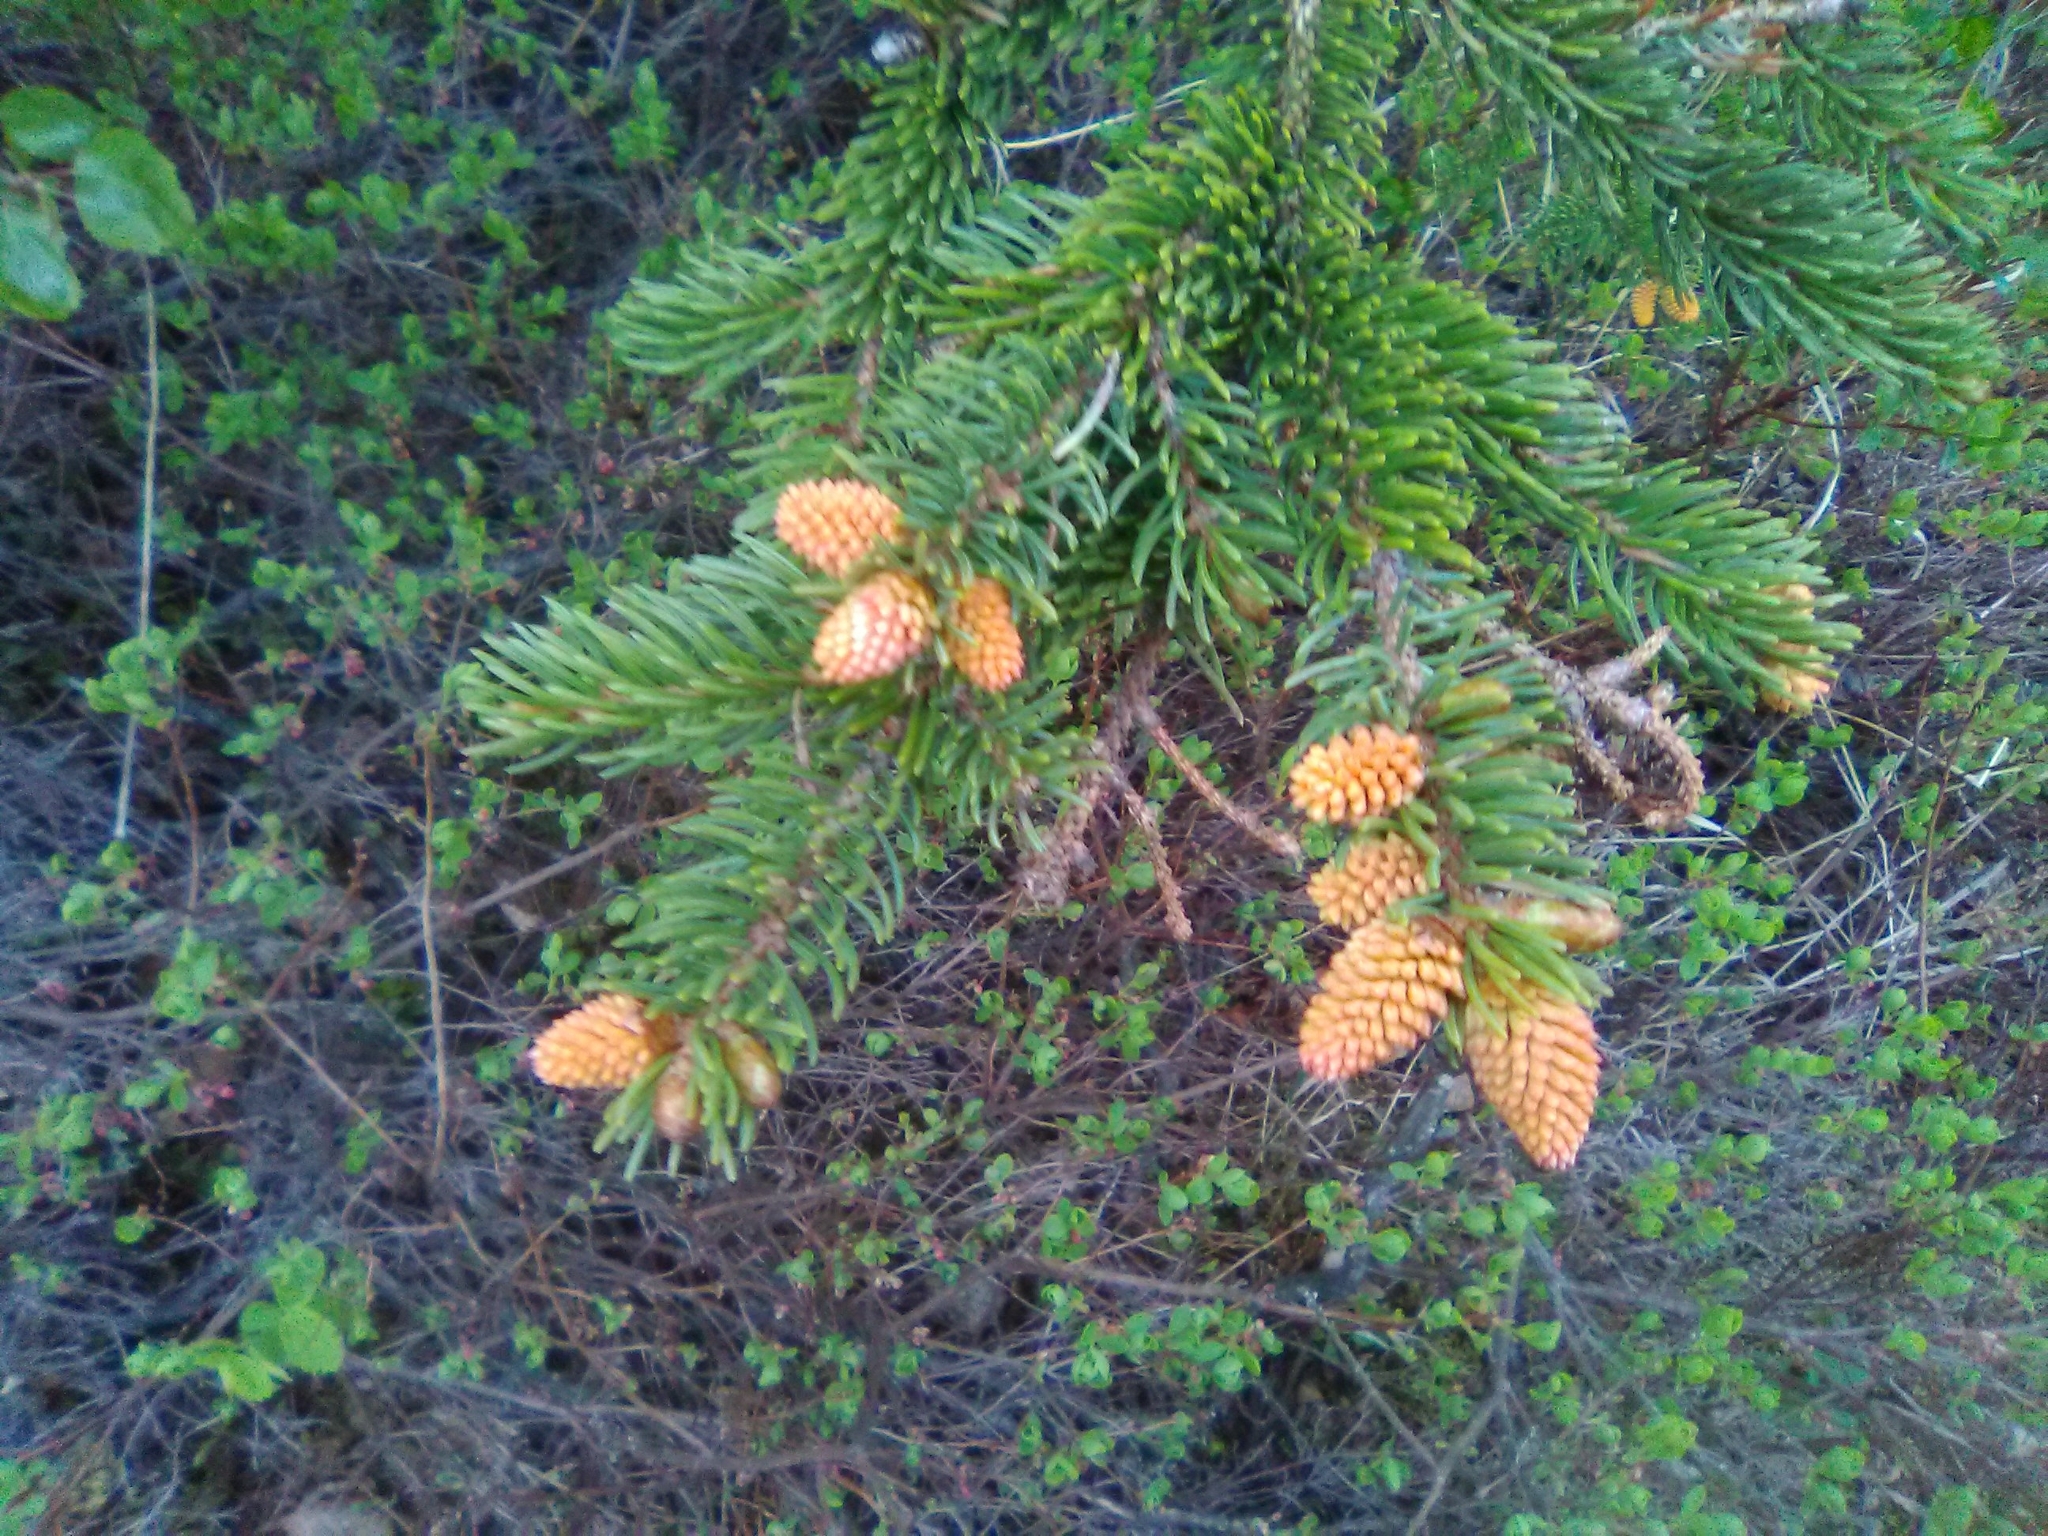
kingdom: Fungi
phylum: Basidiomycota
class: Pucciniomycetes
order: Pucciniales
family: Coleosporiaceae
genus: Chrysomyxa
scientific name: Chrysomyxa woroninii
